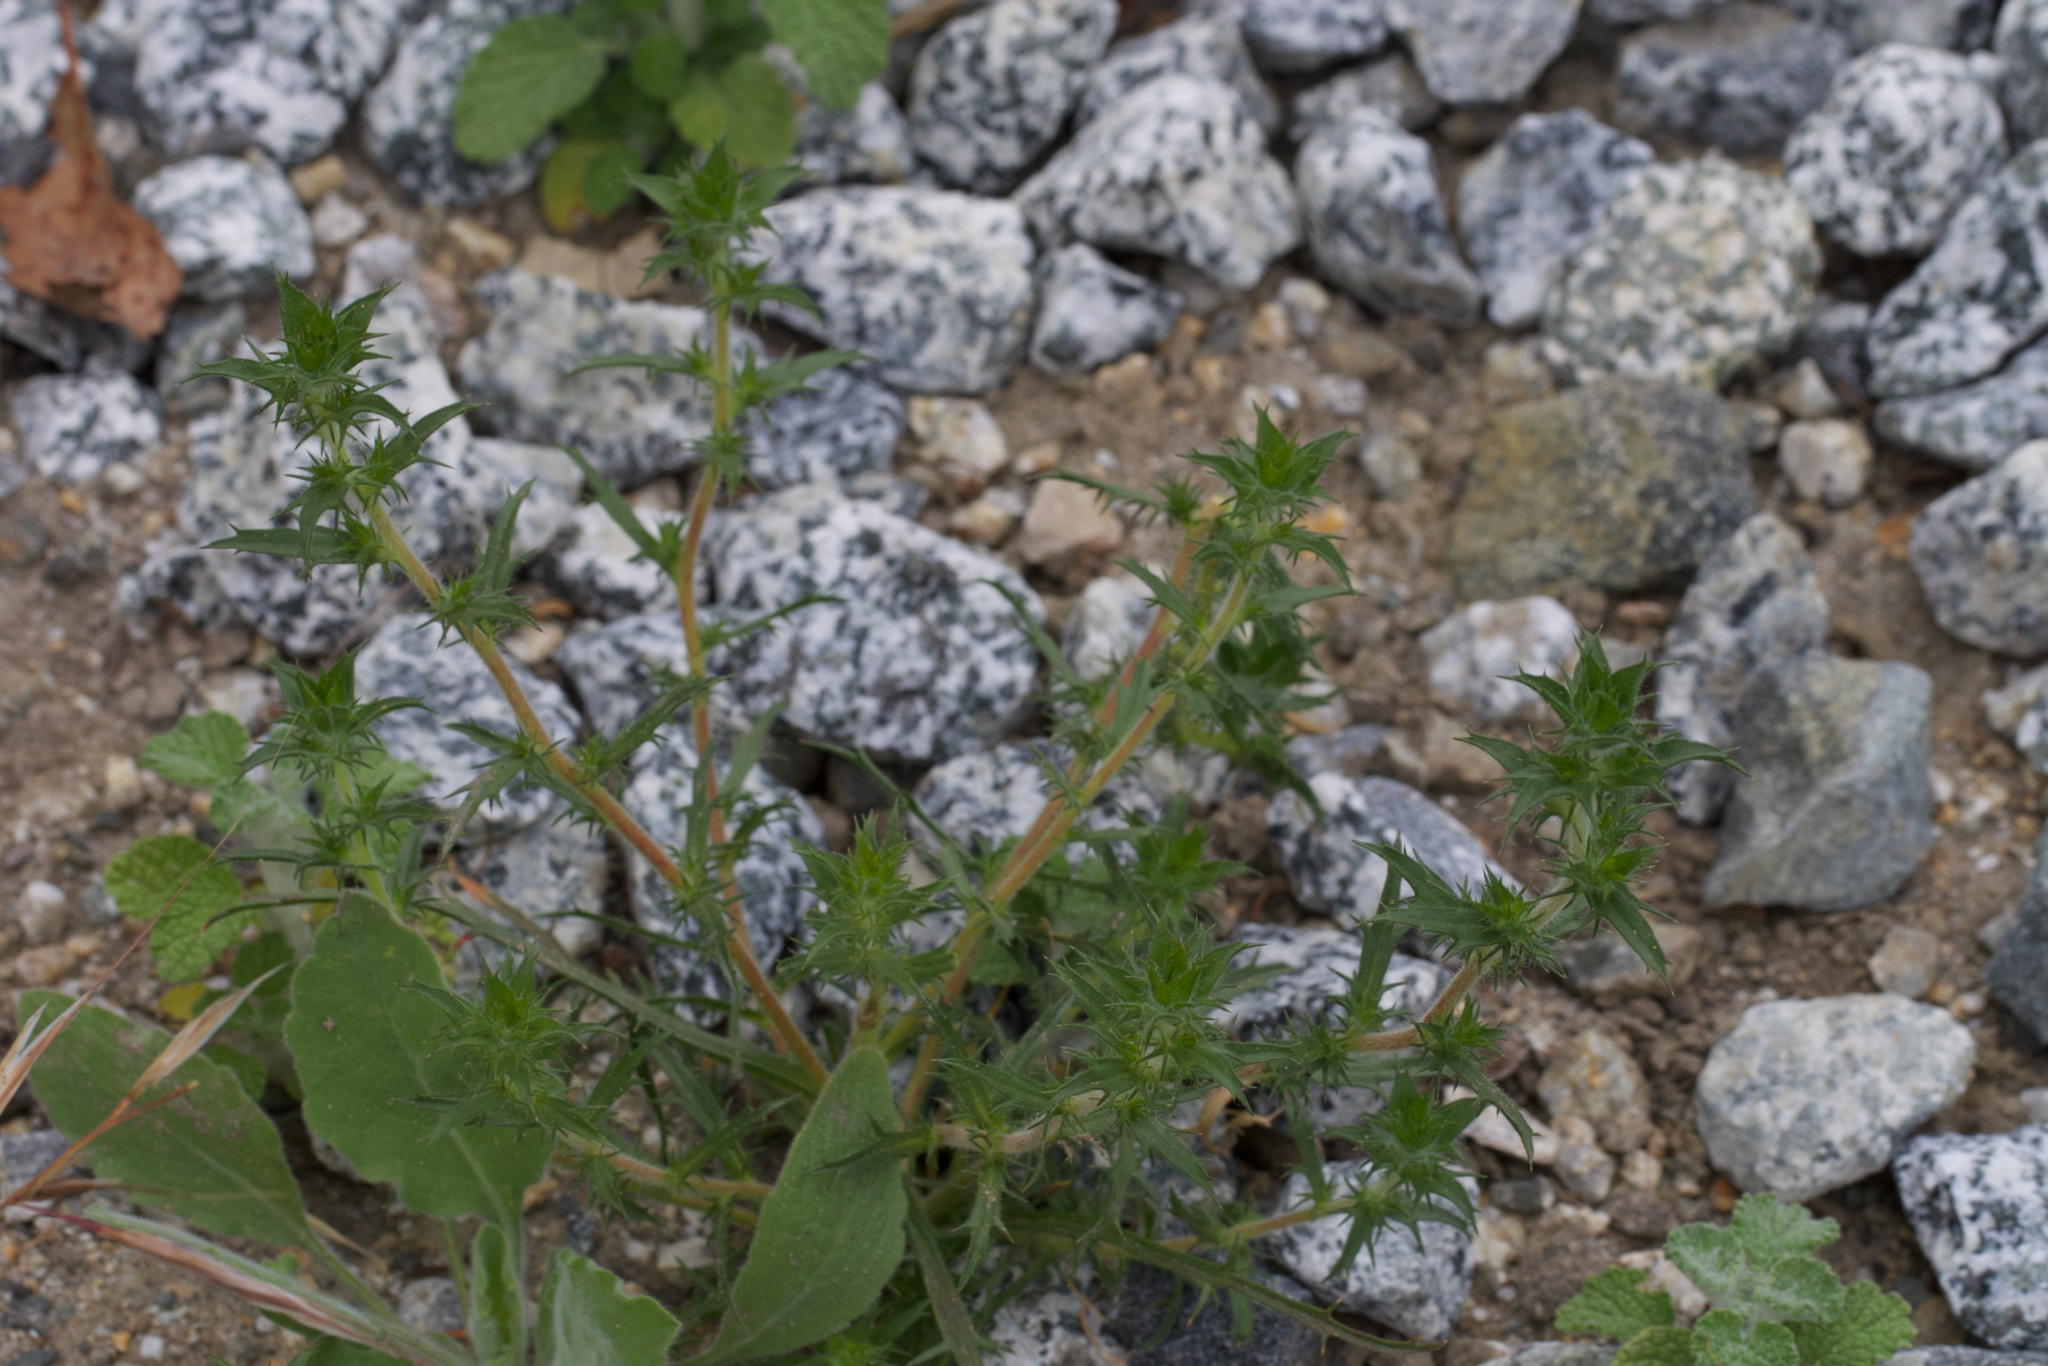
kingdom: Plantae
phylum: Tracheophyta
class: Magnoliopsida
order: Ericales
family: Polemoniaceae
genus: Navarretia
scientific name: Navarretia atractyloides
